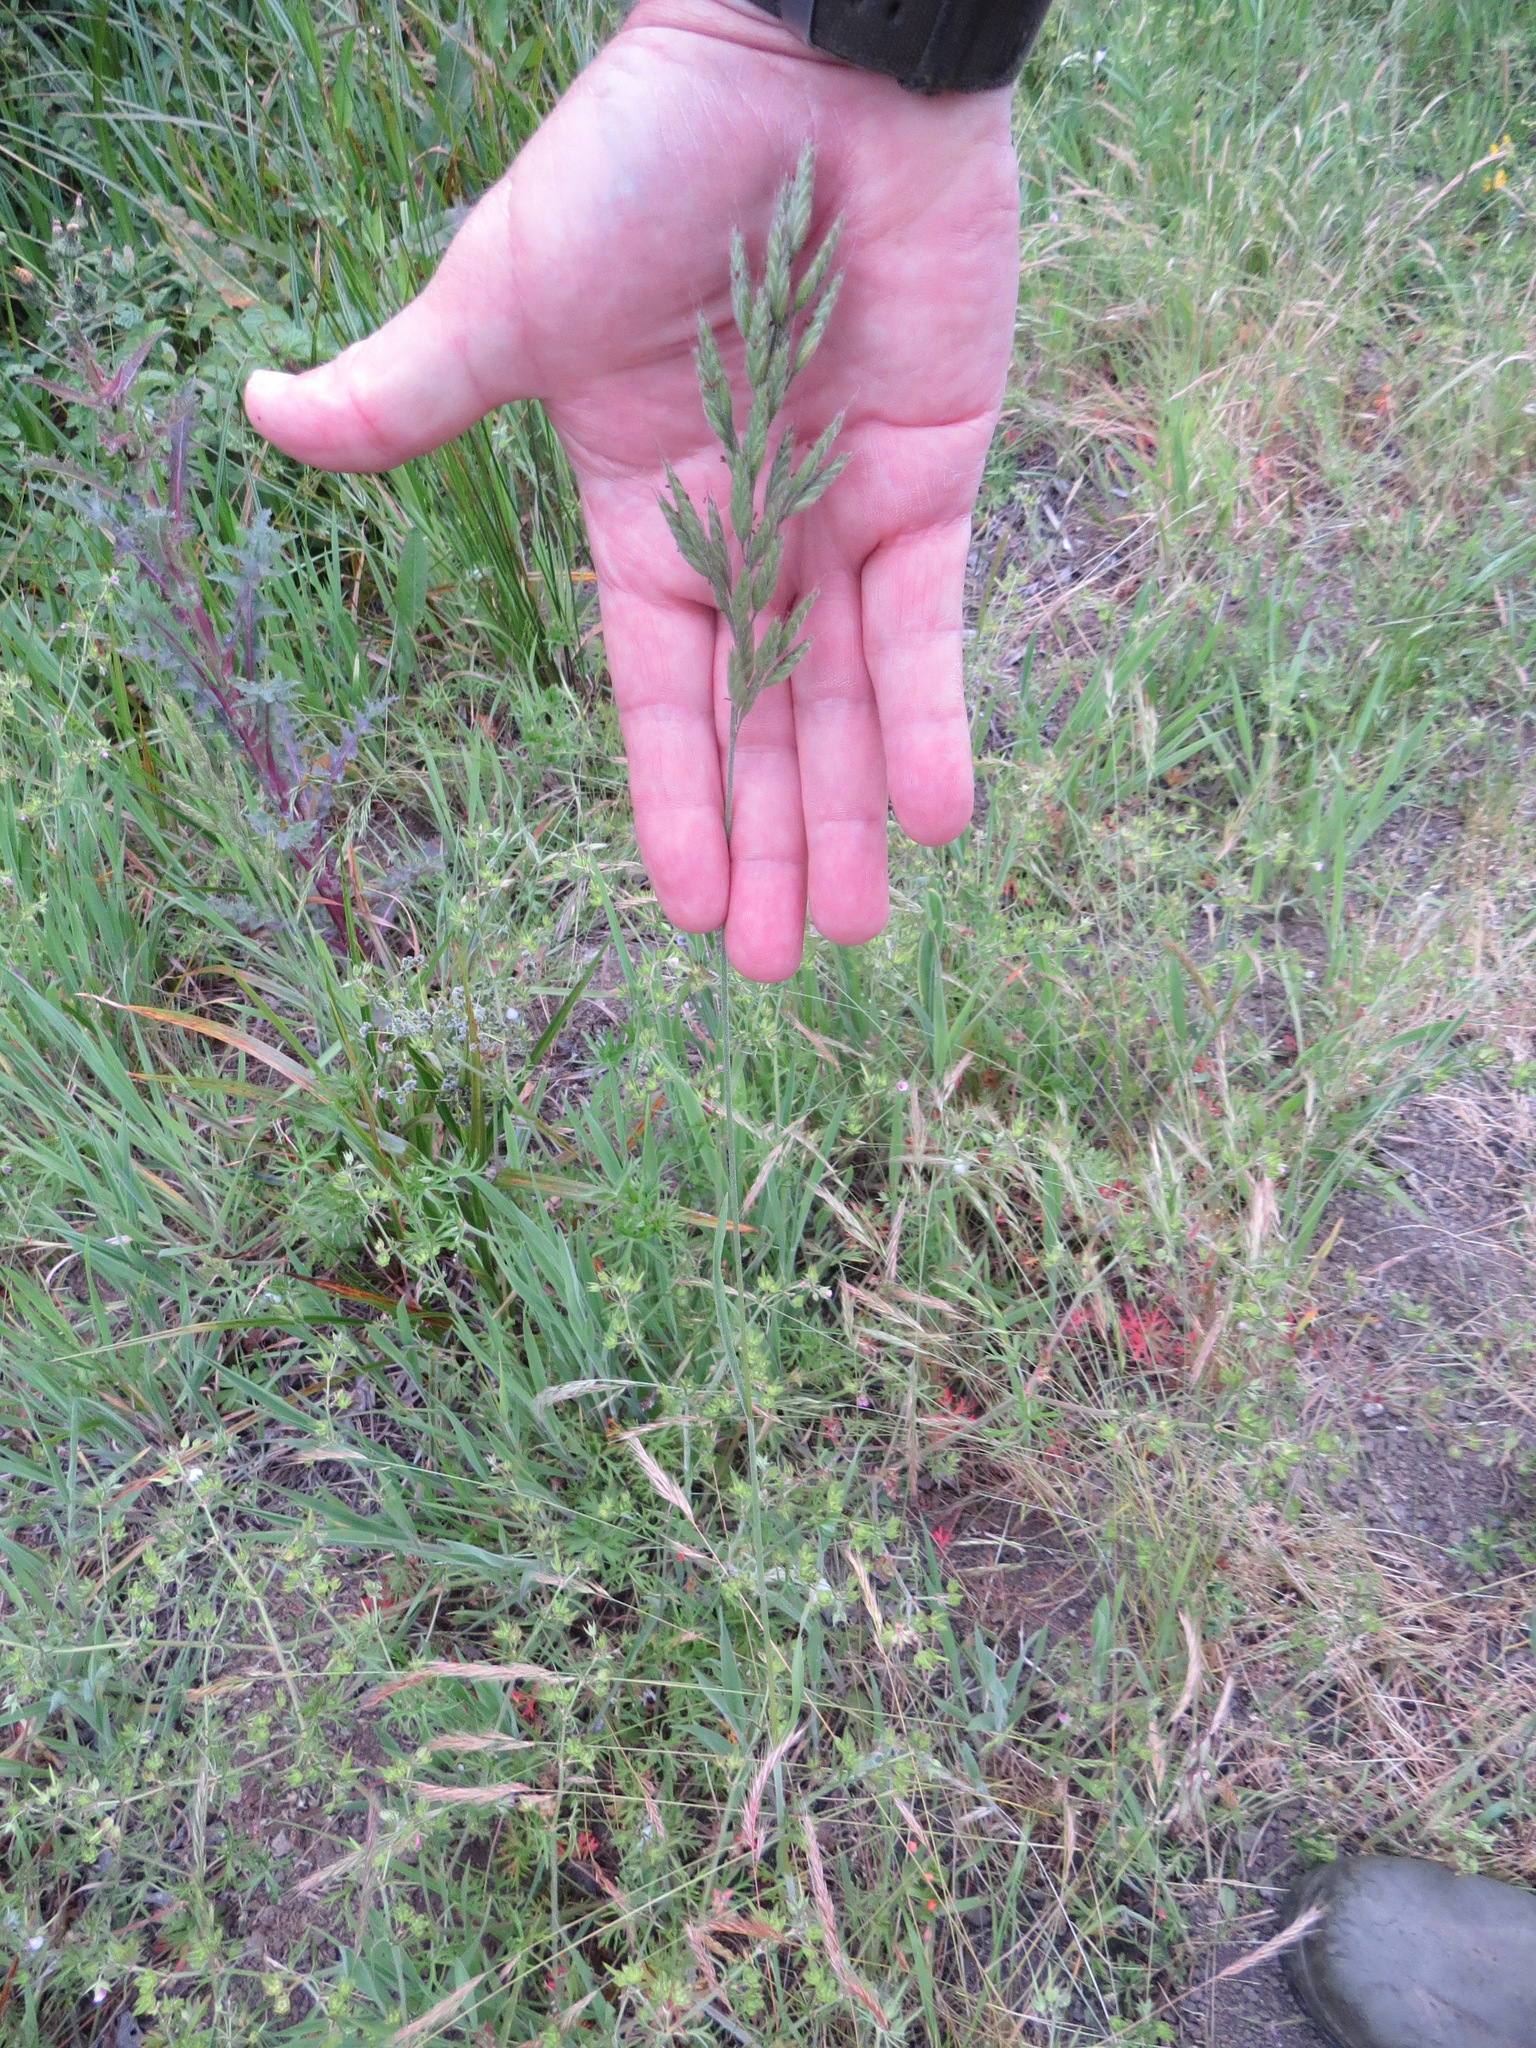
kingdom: Plantae
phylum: Tracheophyta
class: Liliopsida
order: Poales
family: Poaceae
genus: Bromus
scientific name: Bromus hordeaceus
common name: Soft brome
